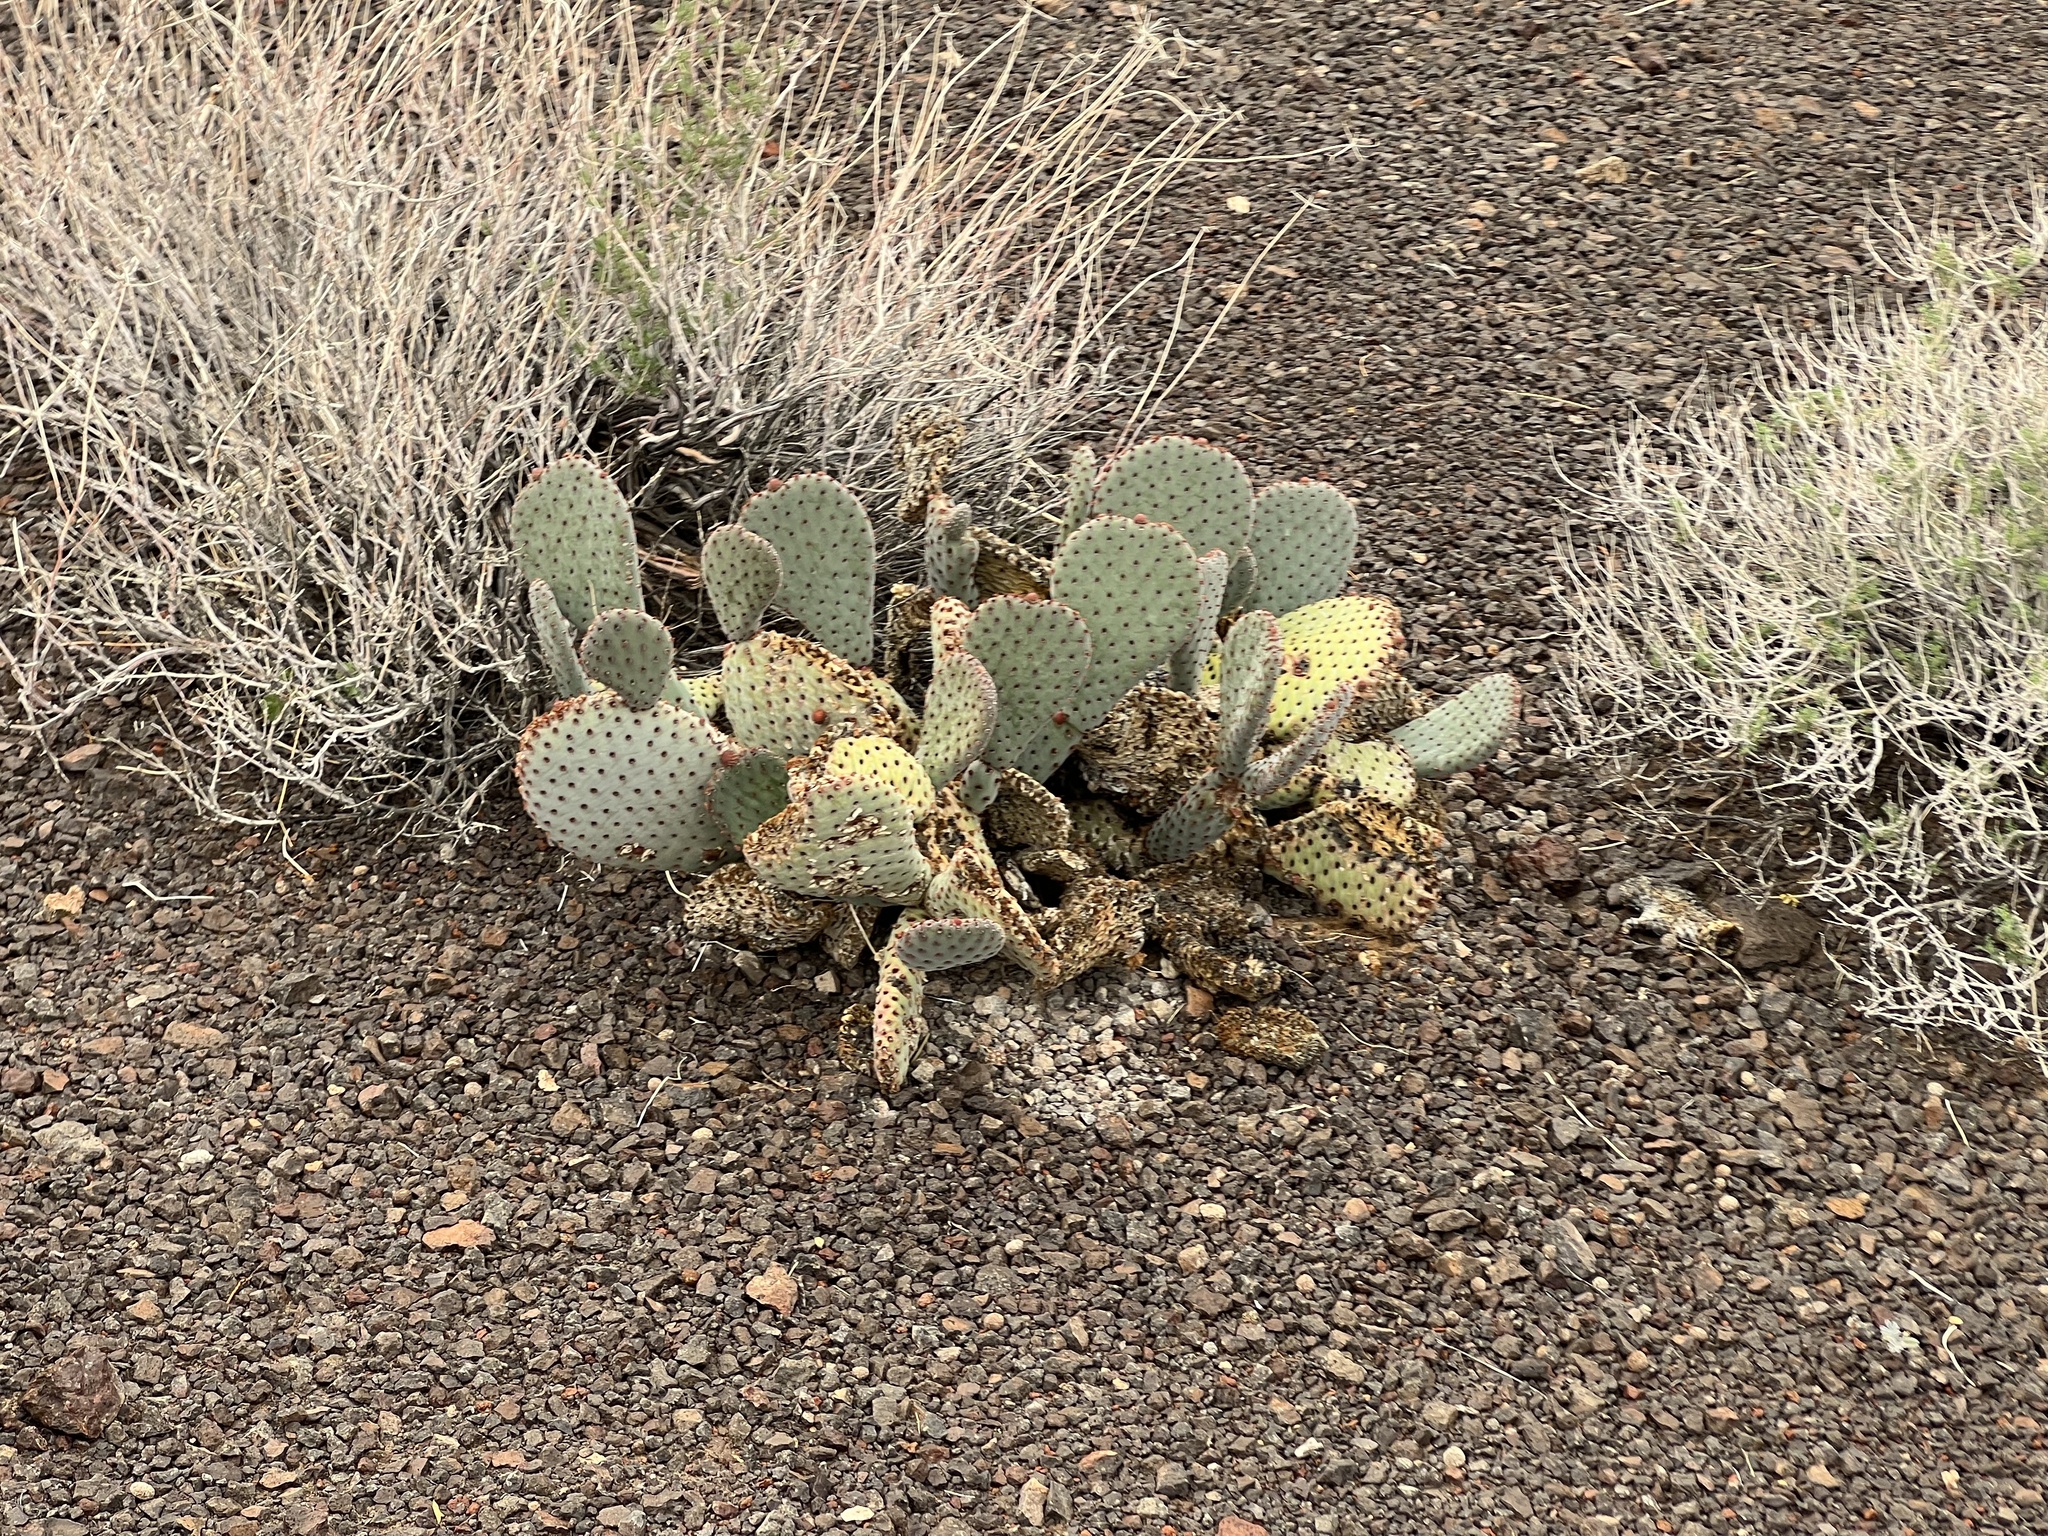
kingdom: Plantae
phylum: Tracheophyta
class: Magnoliopsida
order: Caryophyllales
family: Cactaceae
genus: Opuntia
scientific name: Opuntia basilaris
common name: Beavertail prickly-pear
